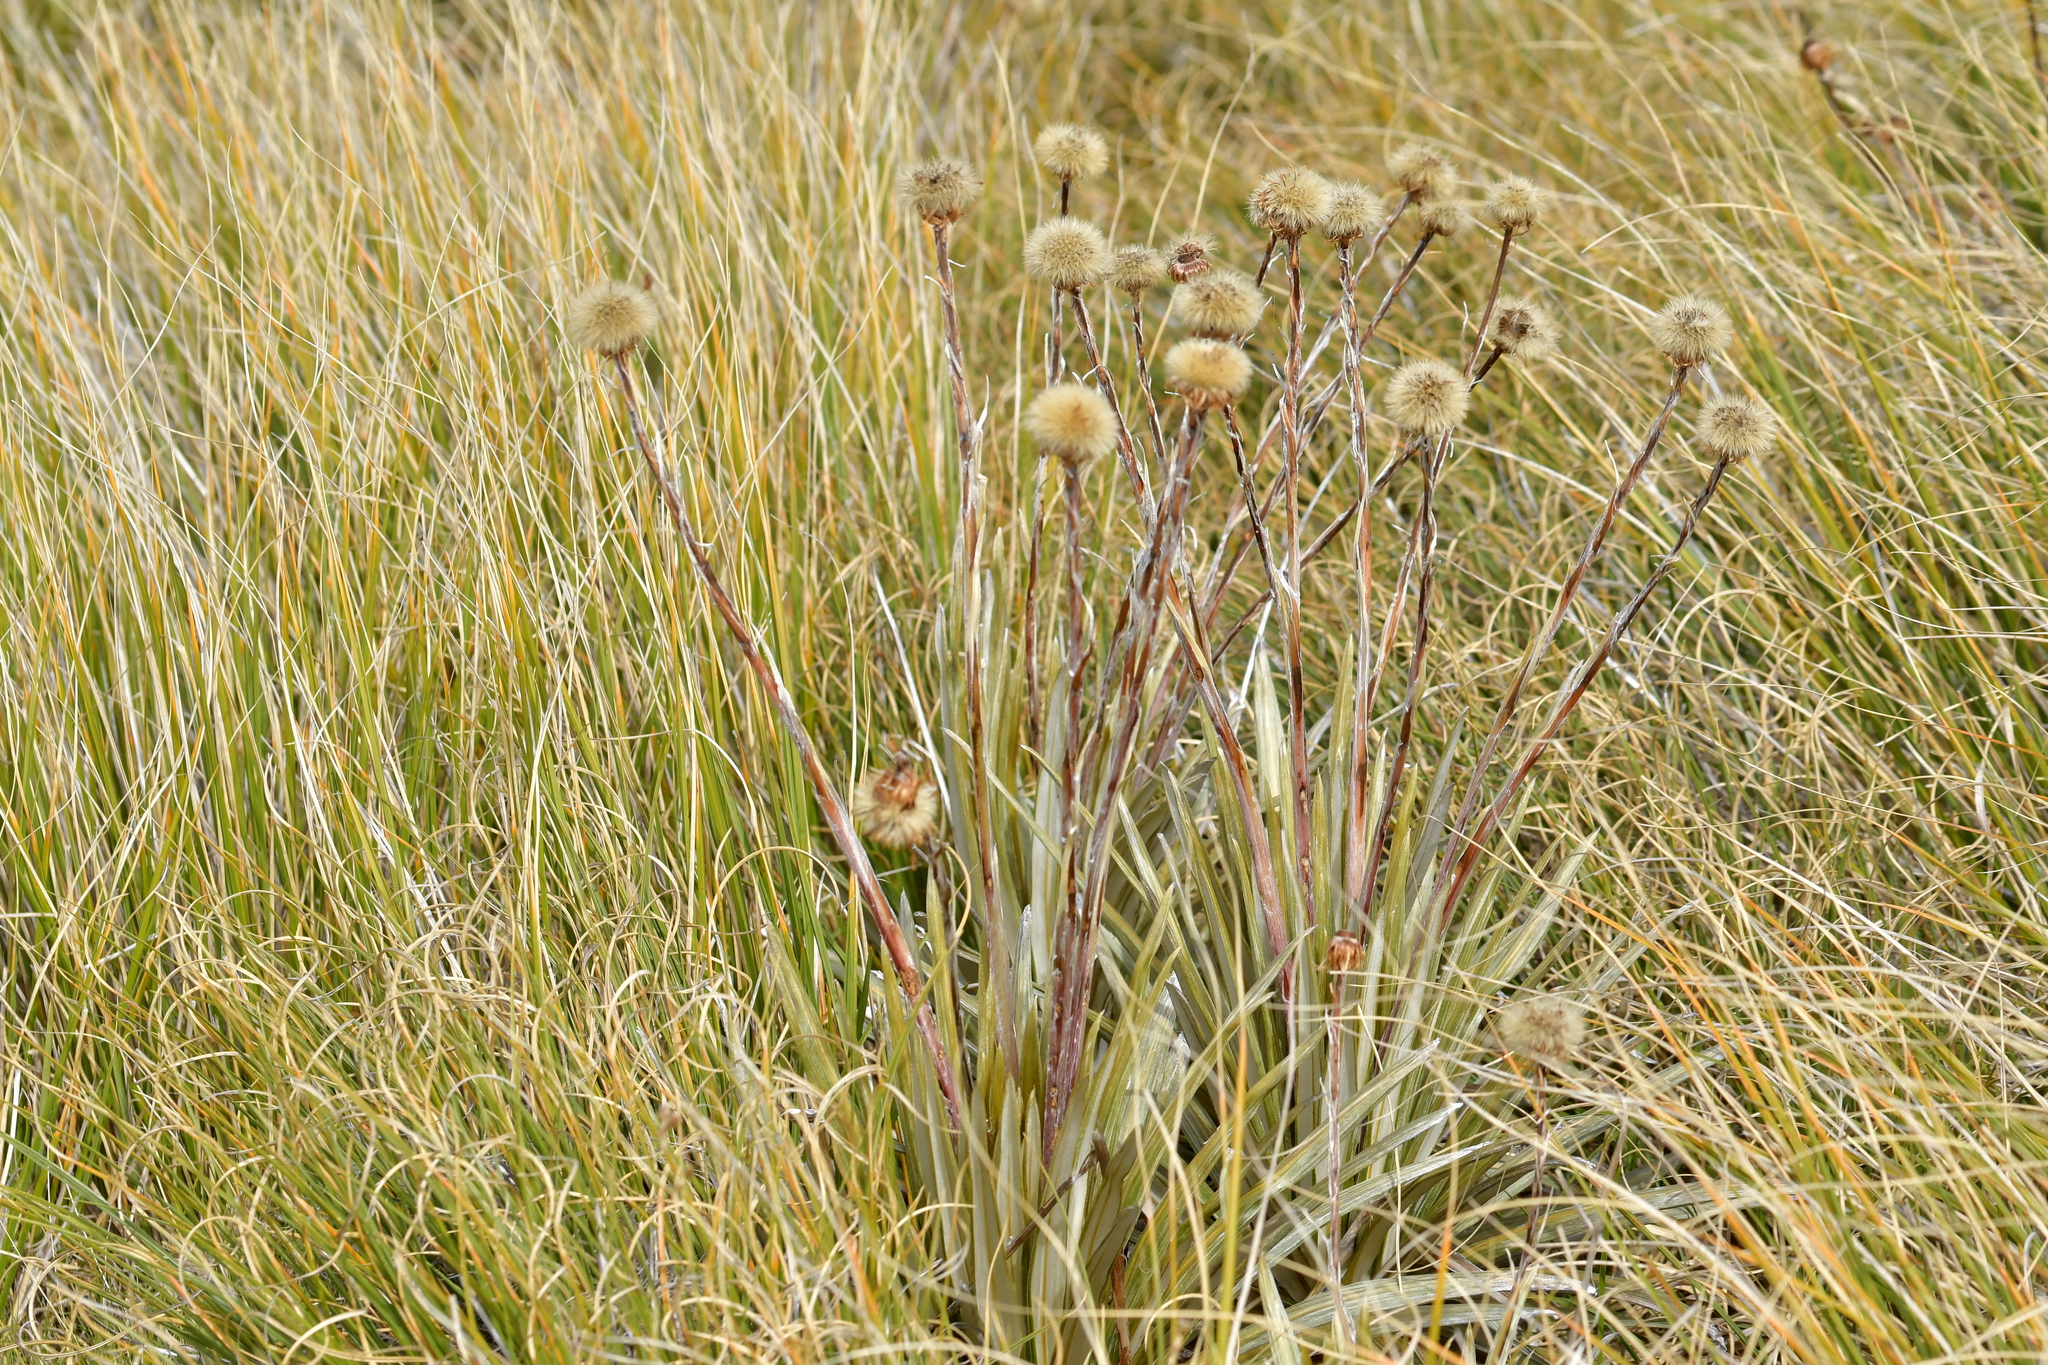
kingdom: Plantae
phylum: Tracheophyta
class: Magnoliopsida
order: Asterales
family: Asteraceae
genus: Celmisia
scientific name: Celmisia armstrongii
